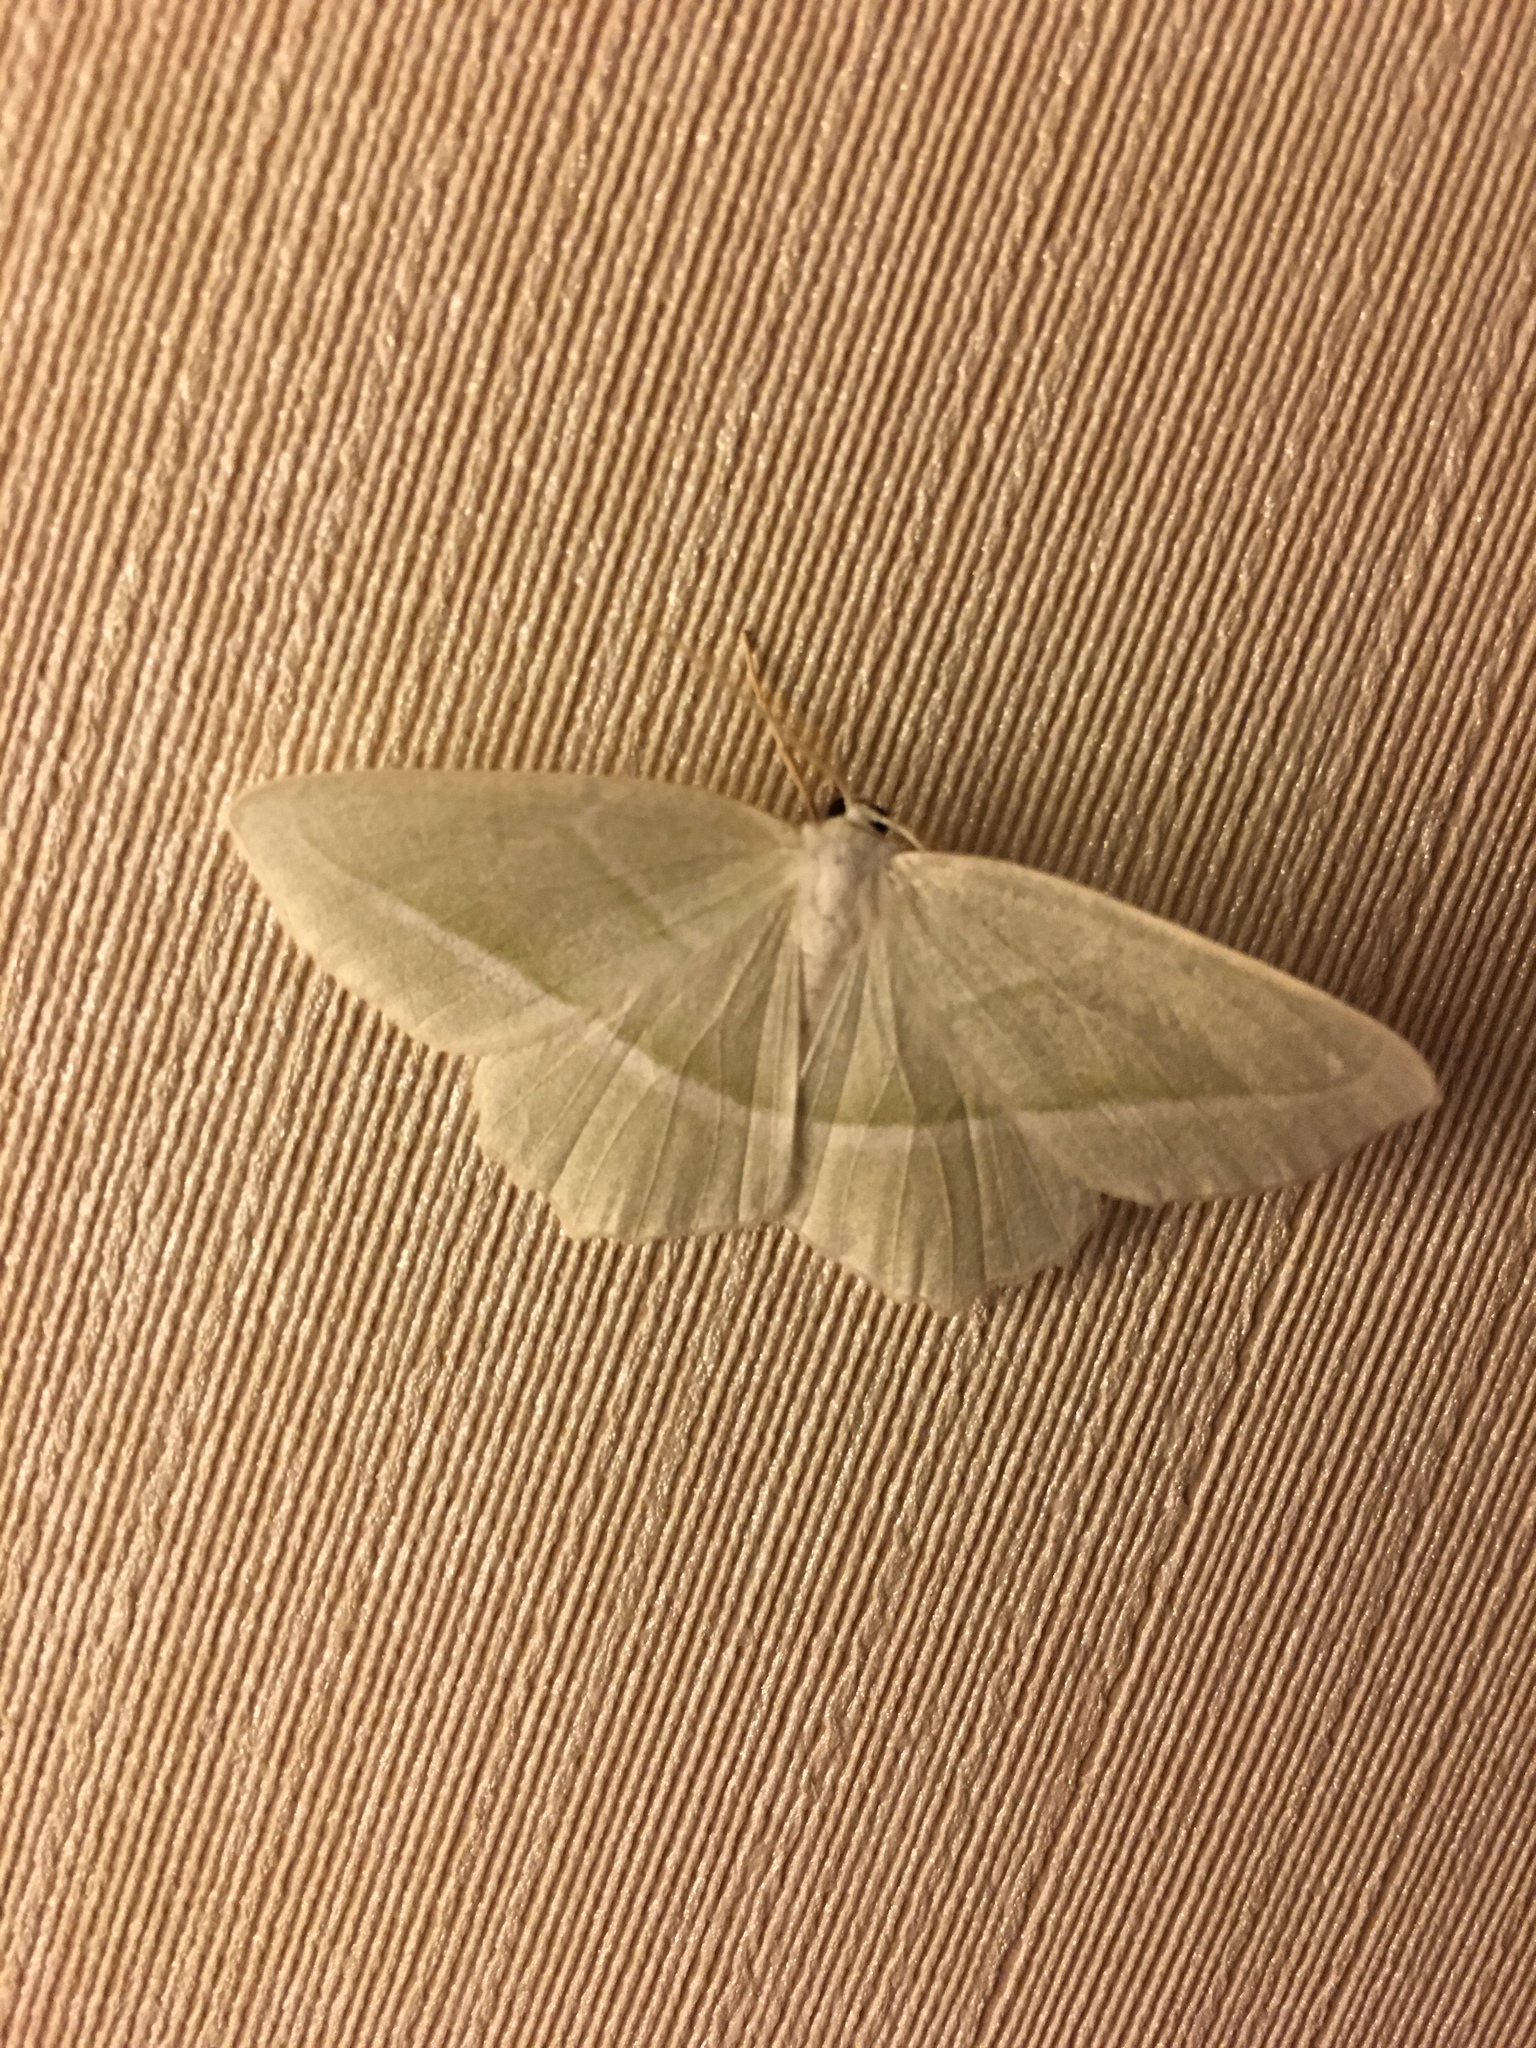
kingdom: Animalia
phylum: Arthropoda
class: Insecta
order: Lepidoptera
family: Geometridae
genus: Campaea
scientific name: Campaea perlata
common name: Fringed looper
